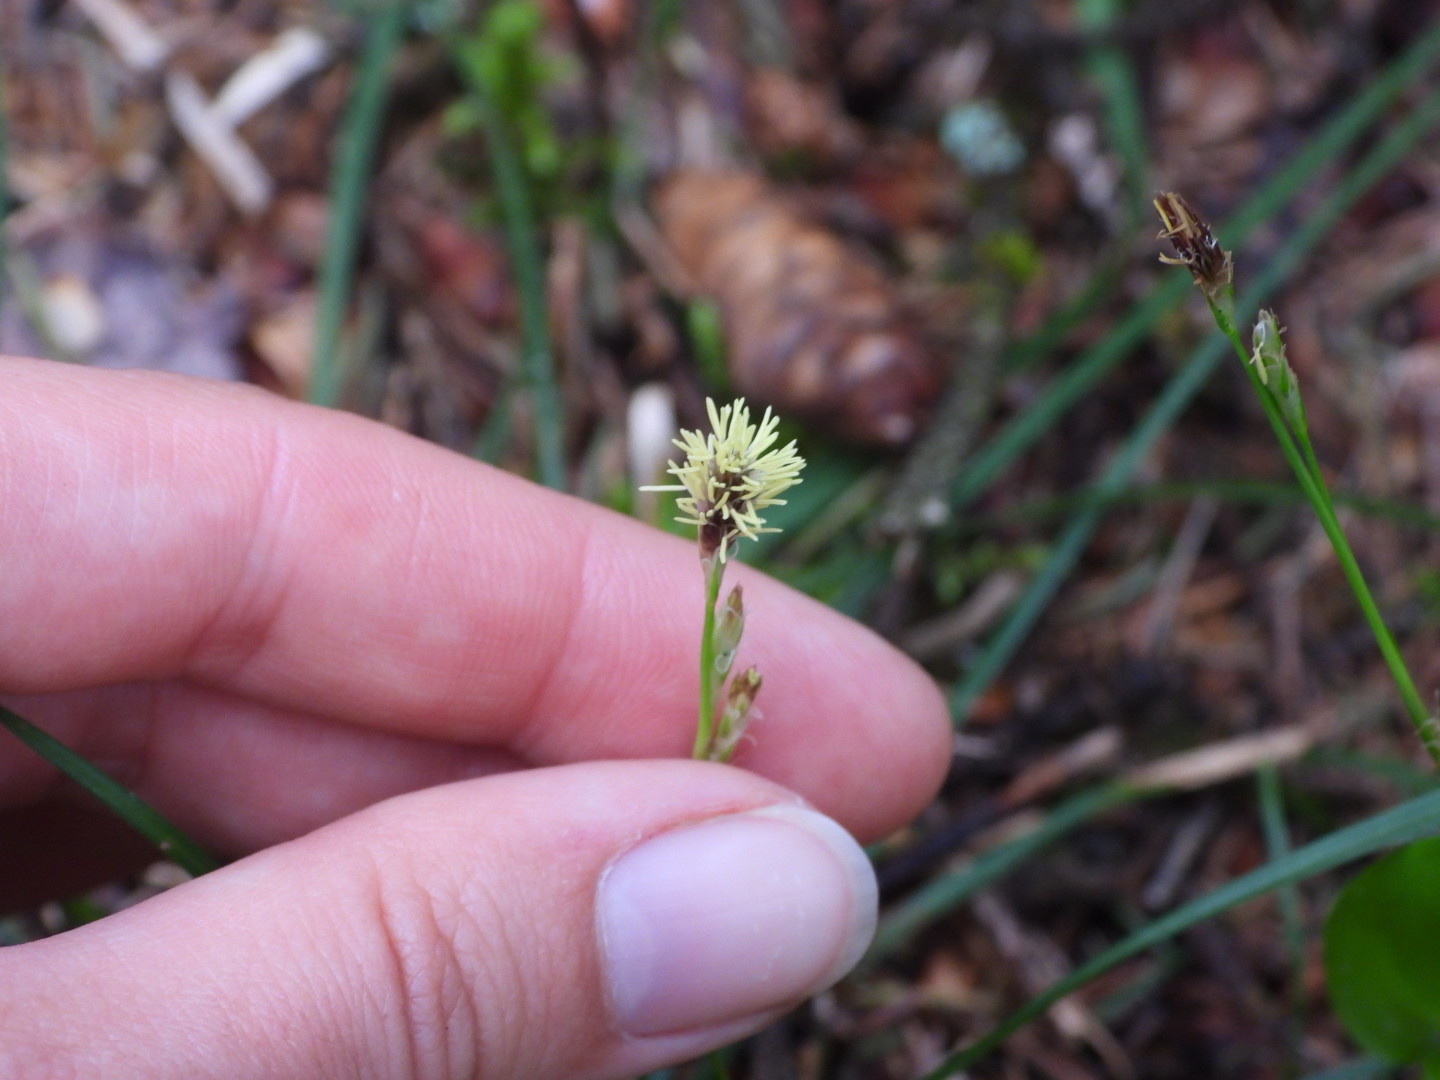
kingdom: Plantae
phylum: Tracheophyta
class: Liliopsida
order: Poales
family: Cyperaceae
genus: Carex
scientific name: Carex pedunculata
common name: Pedunculate sedge
